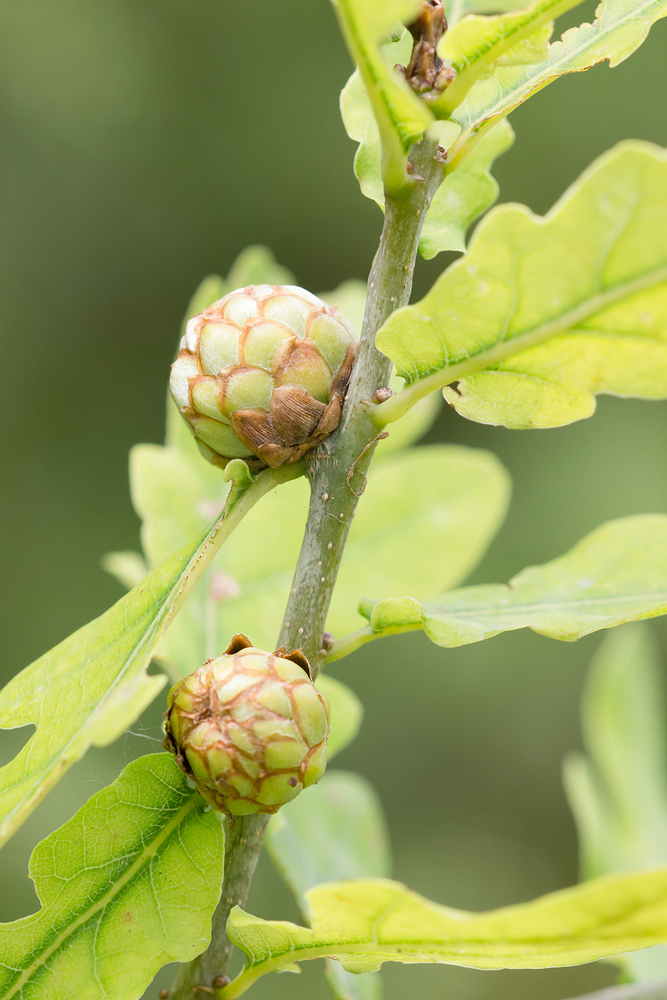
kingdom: Animalia
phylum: Arthropoda
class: Insecta
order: Hymenoptera
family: Cynipidae
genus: Andricus
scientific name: Andricus foecundatrix
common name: Artichoke gall
